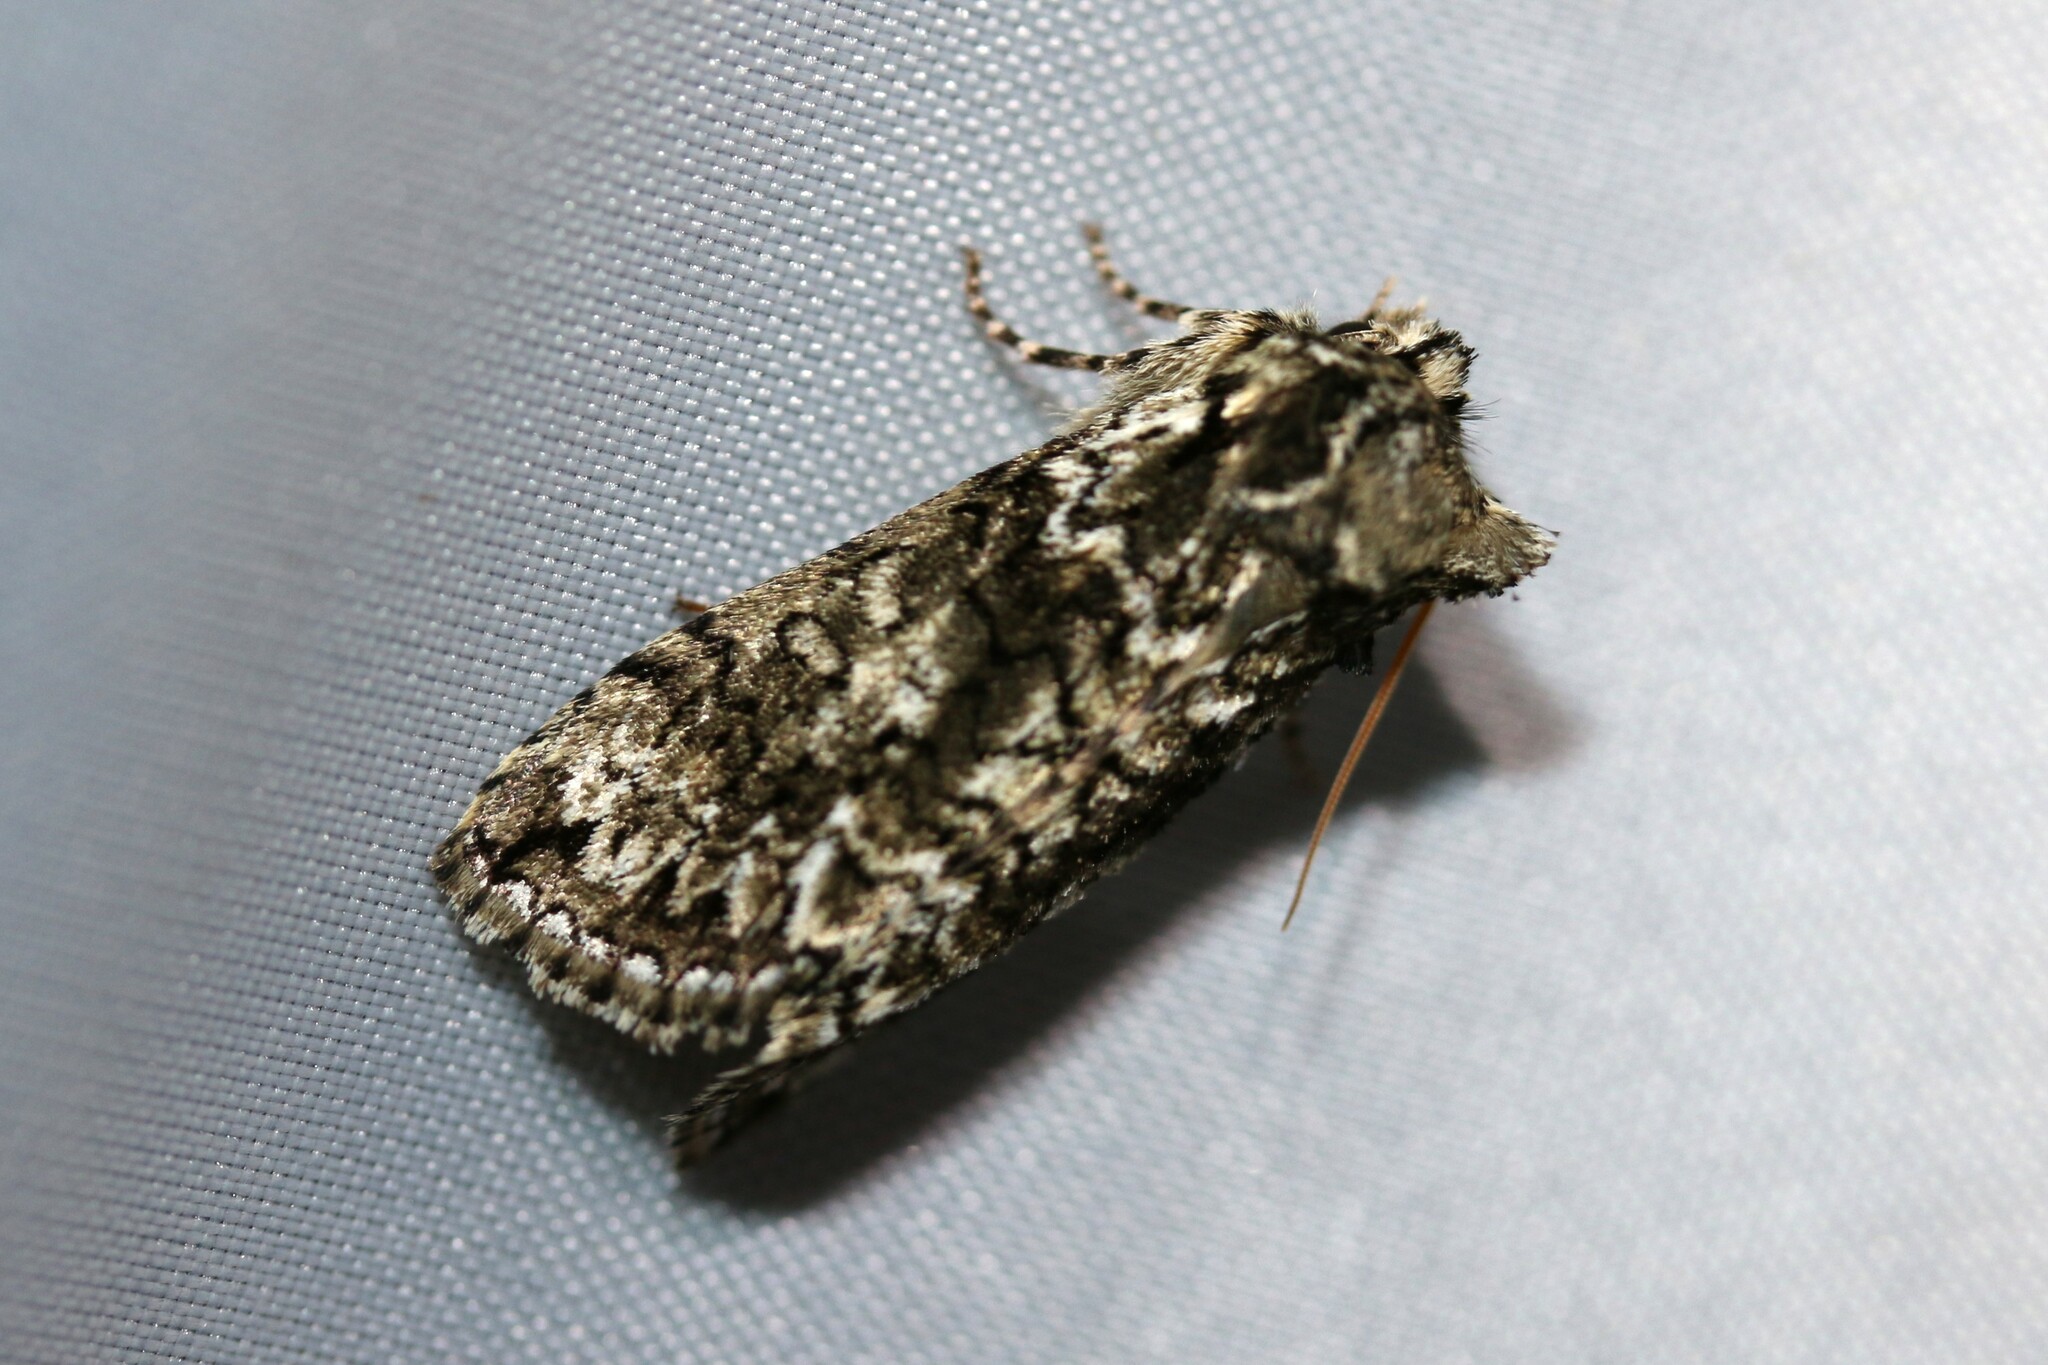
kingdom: Animalia
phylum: Arthropoda
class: Insecta
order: Lepidoptera
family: Drepanidae
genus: Polyploca
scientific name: Polyploca ridens
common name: Frosted green
